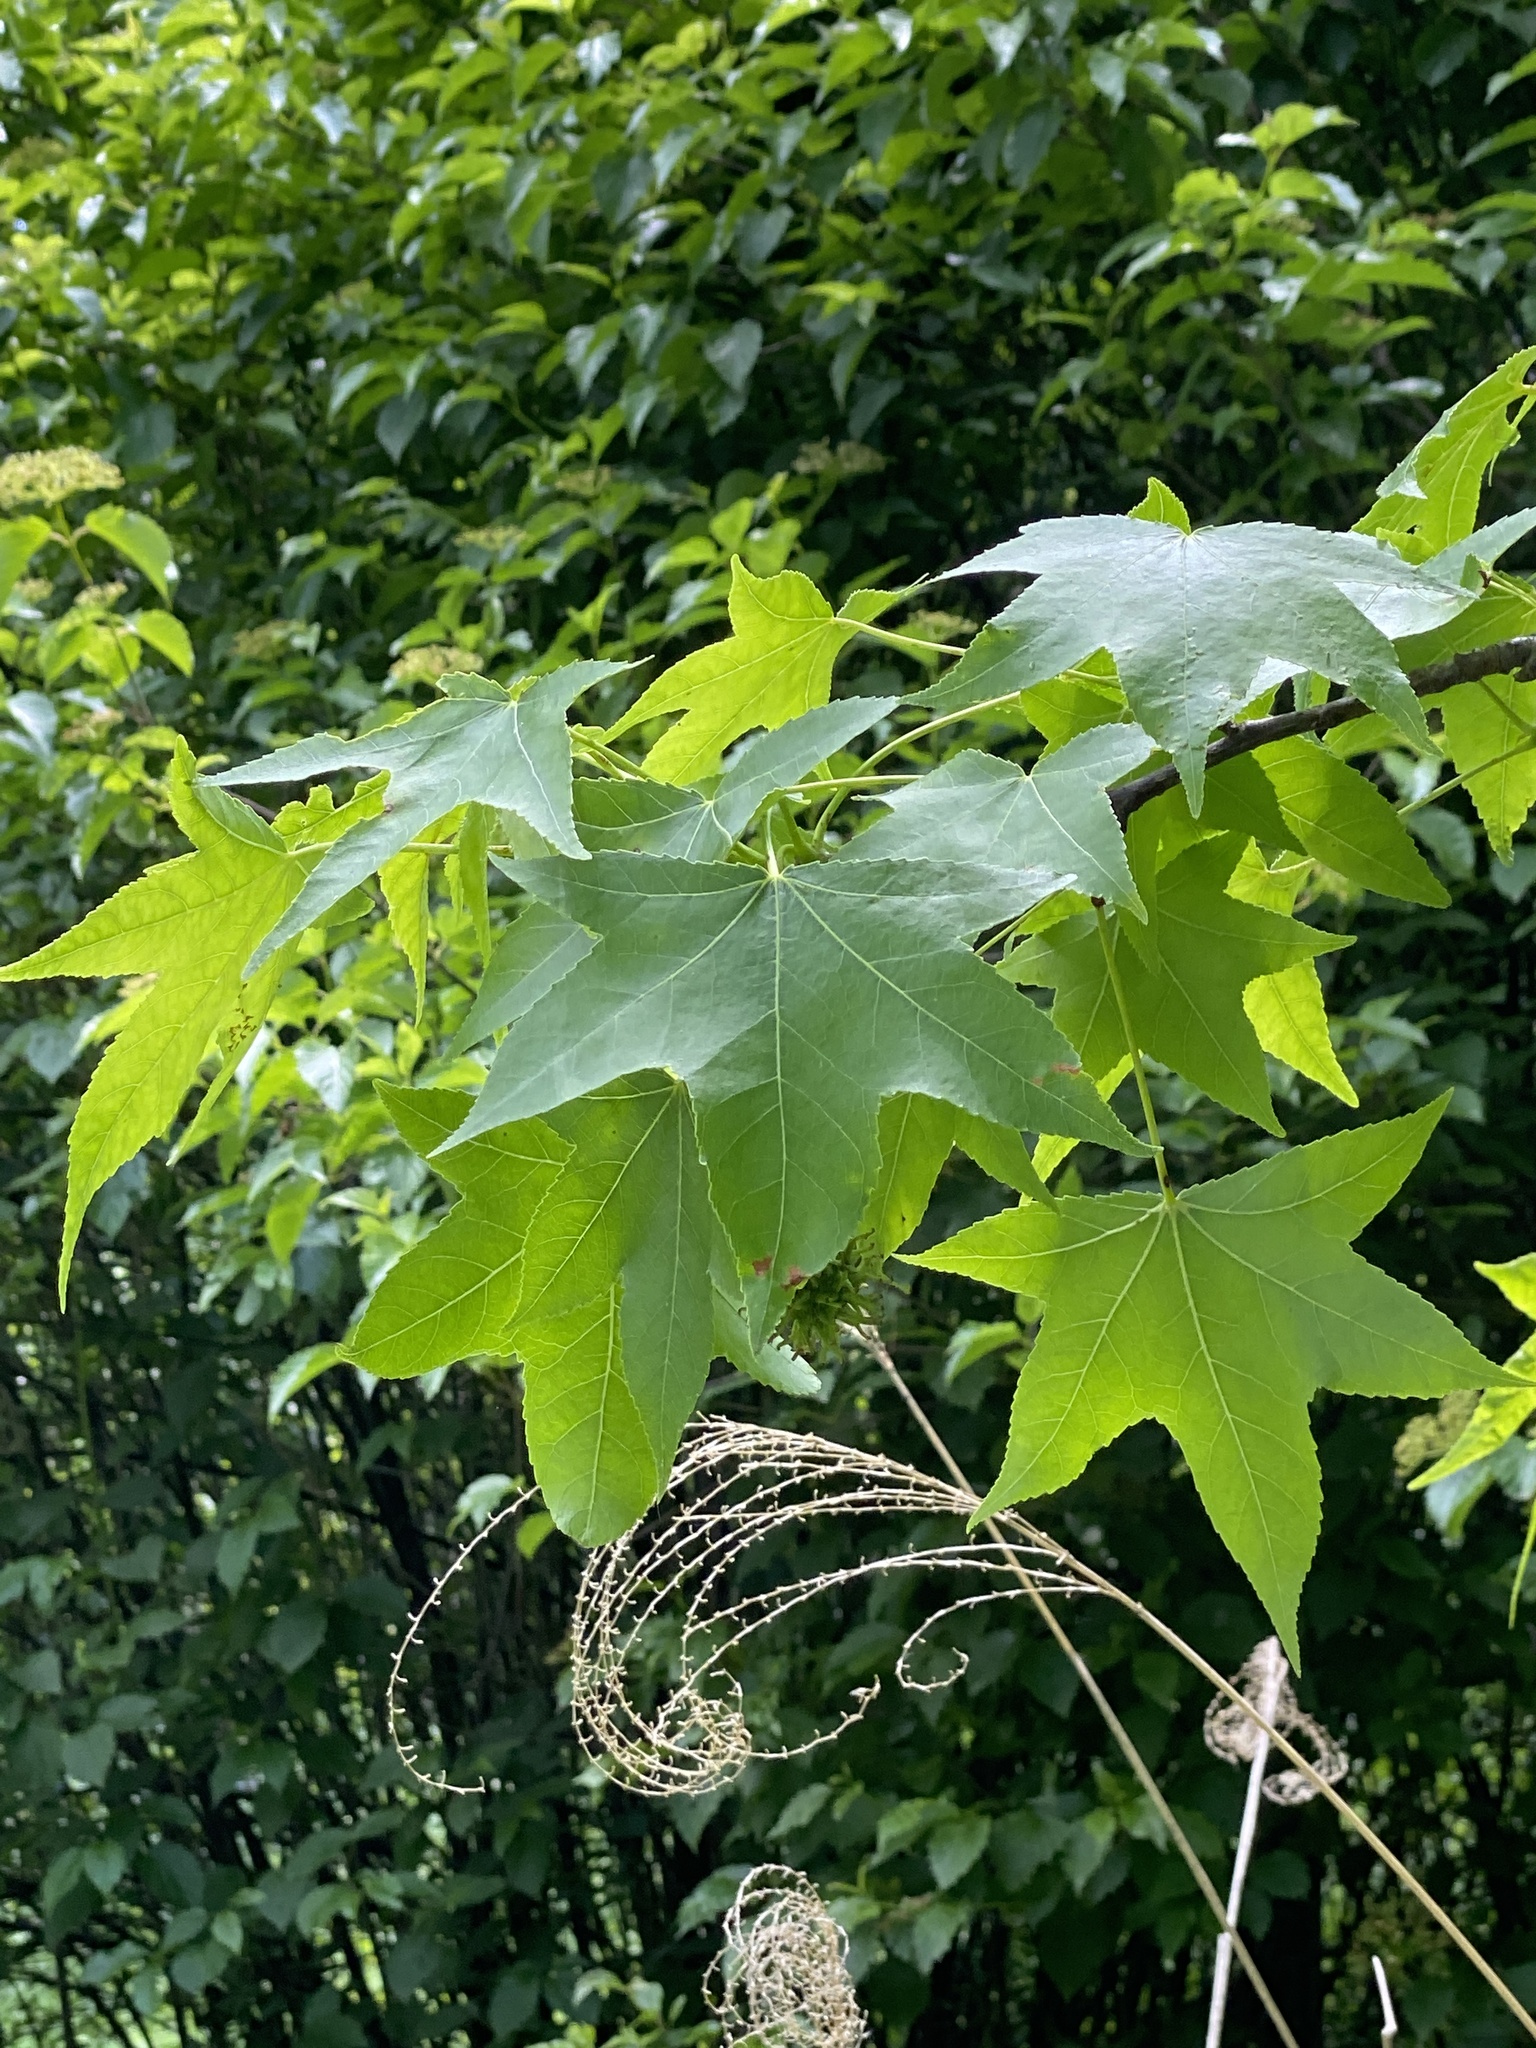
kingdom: Plantae
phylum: Tracheophyta
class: Magnoliopsida
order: Saxifragales
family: Altingiaceae
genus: Liquidambar
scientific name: Liquidambar styraciflua
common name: Sweet gum
